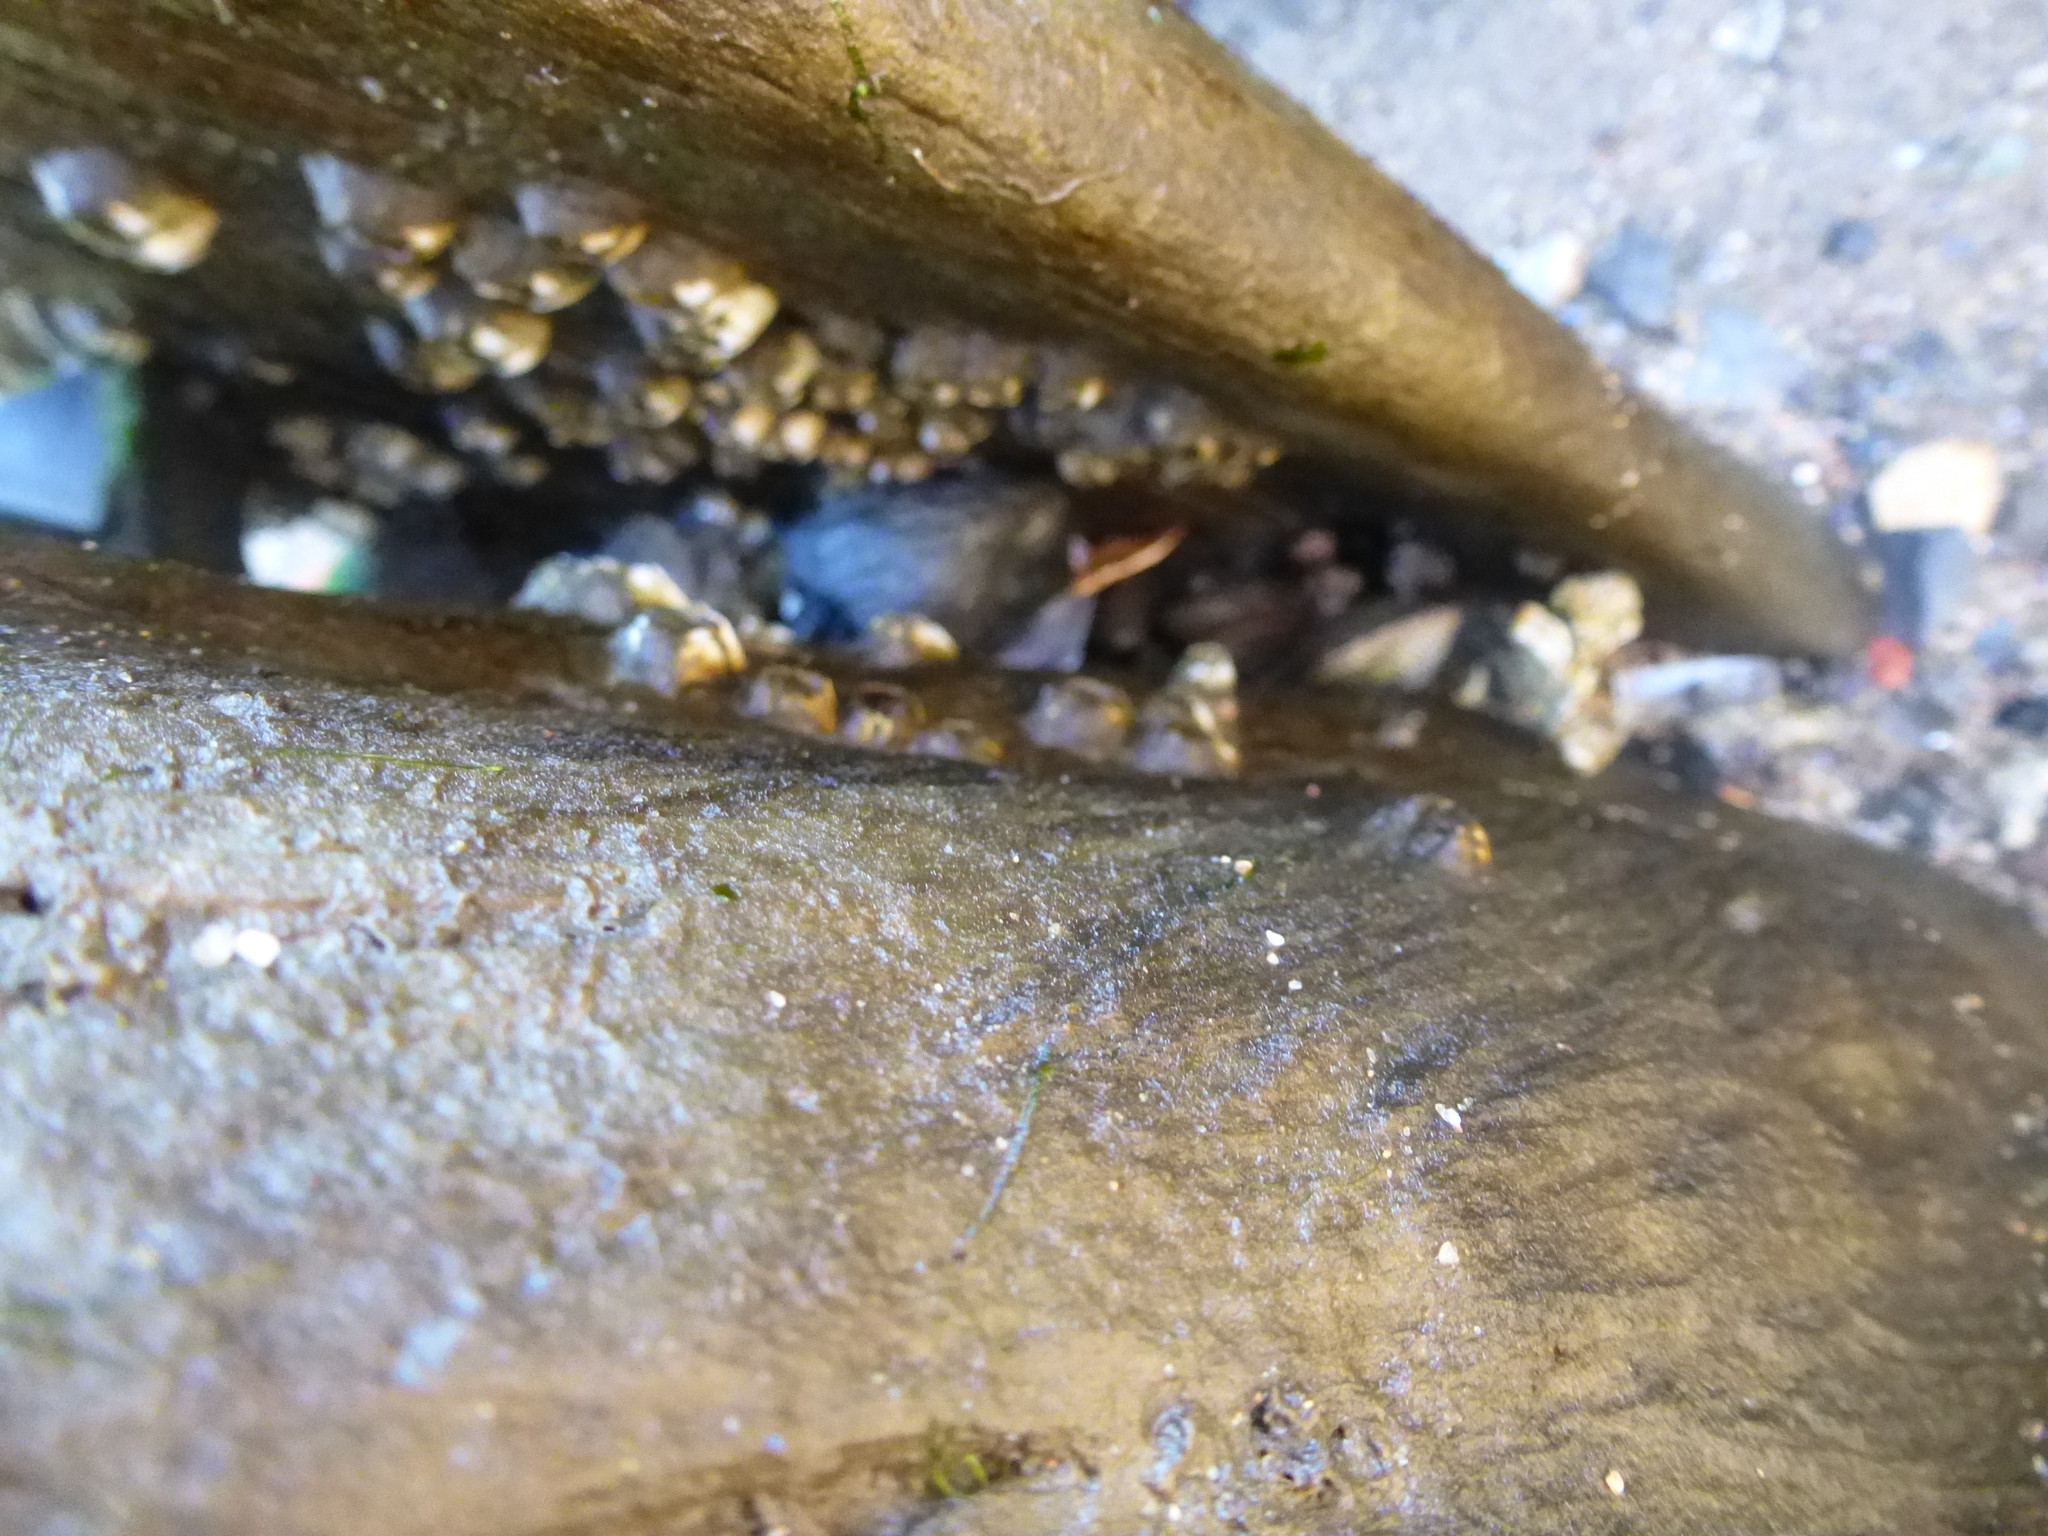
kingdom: Animalia
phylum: Mollusca
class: Bivalvia
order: Mytilida
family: Mytilidae
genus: Geukensia
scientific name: Geukensia demissa
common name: Ribbed mussel
